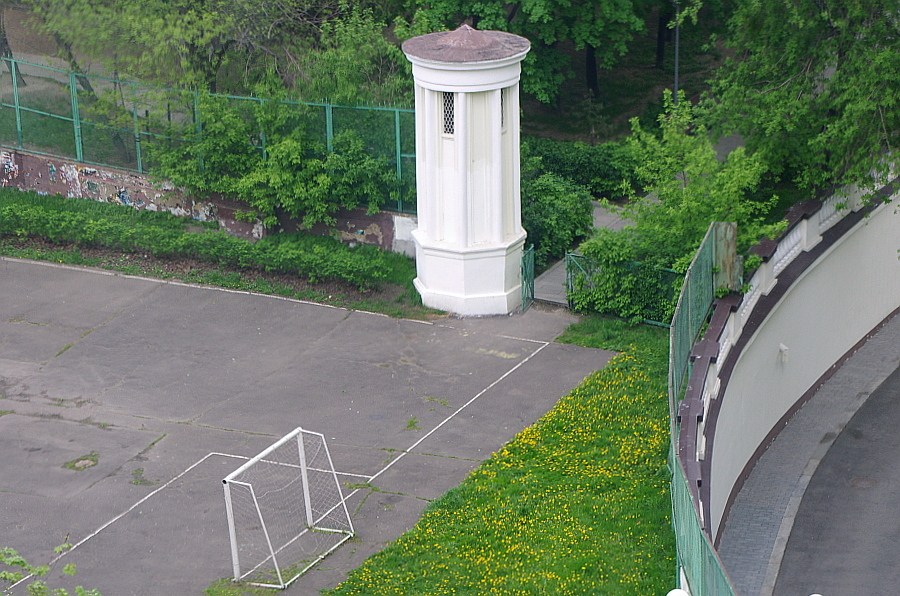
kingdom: Plantae
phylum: Tracheophyta
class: Magnoliopsida
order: Asterales
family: Asteraceae
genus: Taraxacum
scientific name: Taraxacum officinale
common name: Common dandelion
